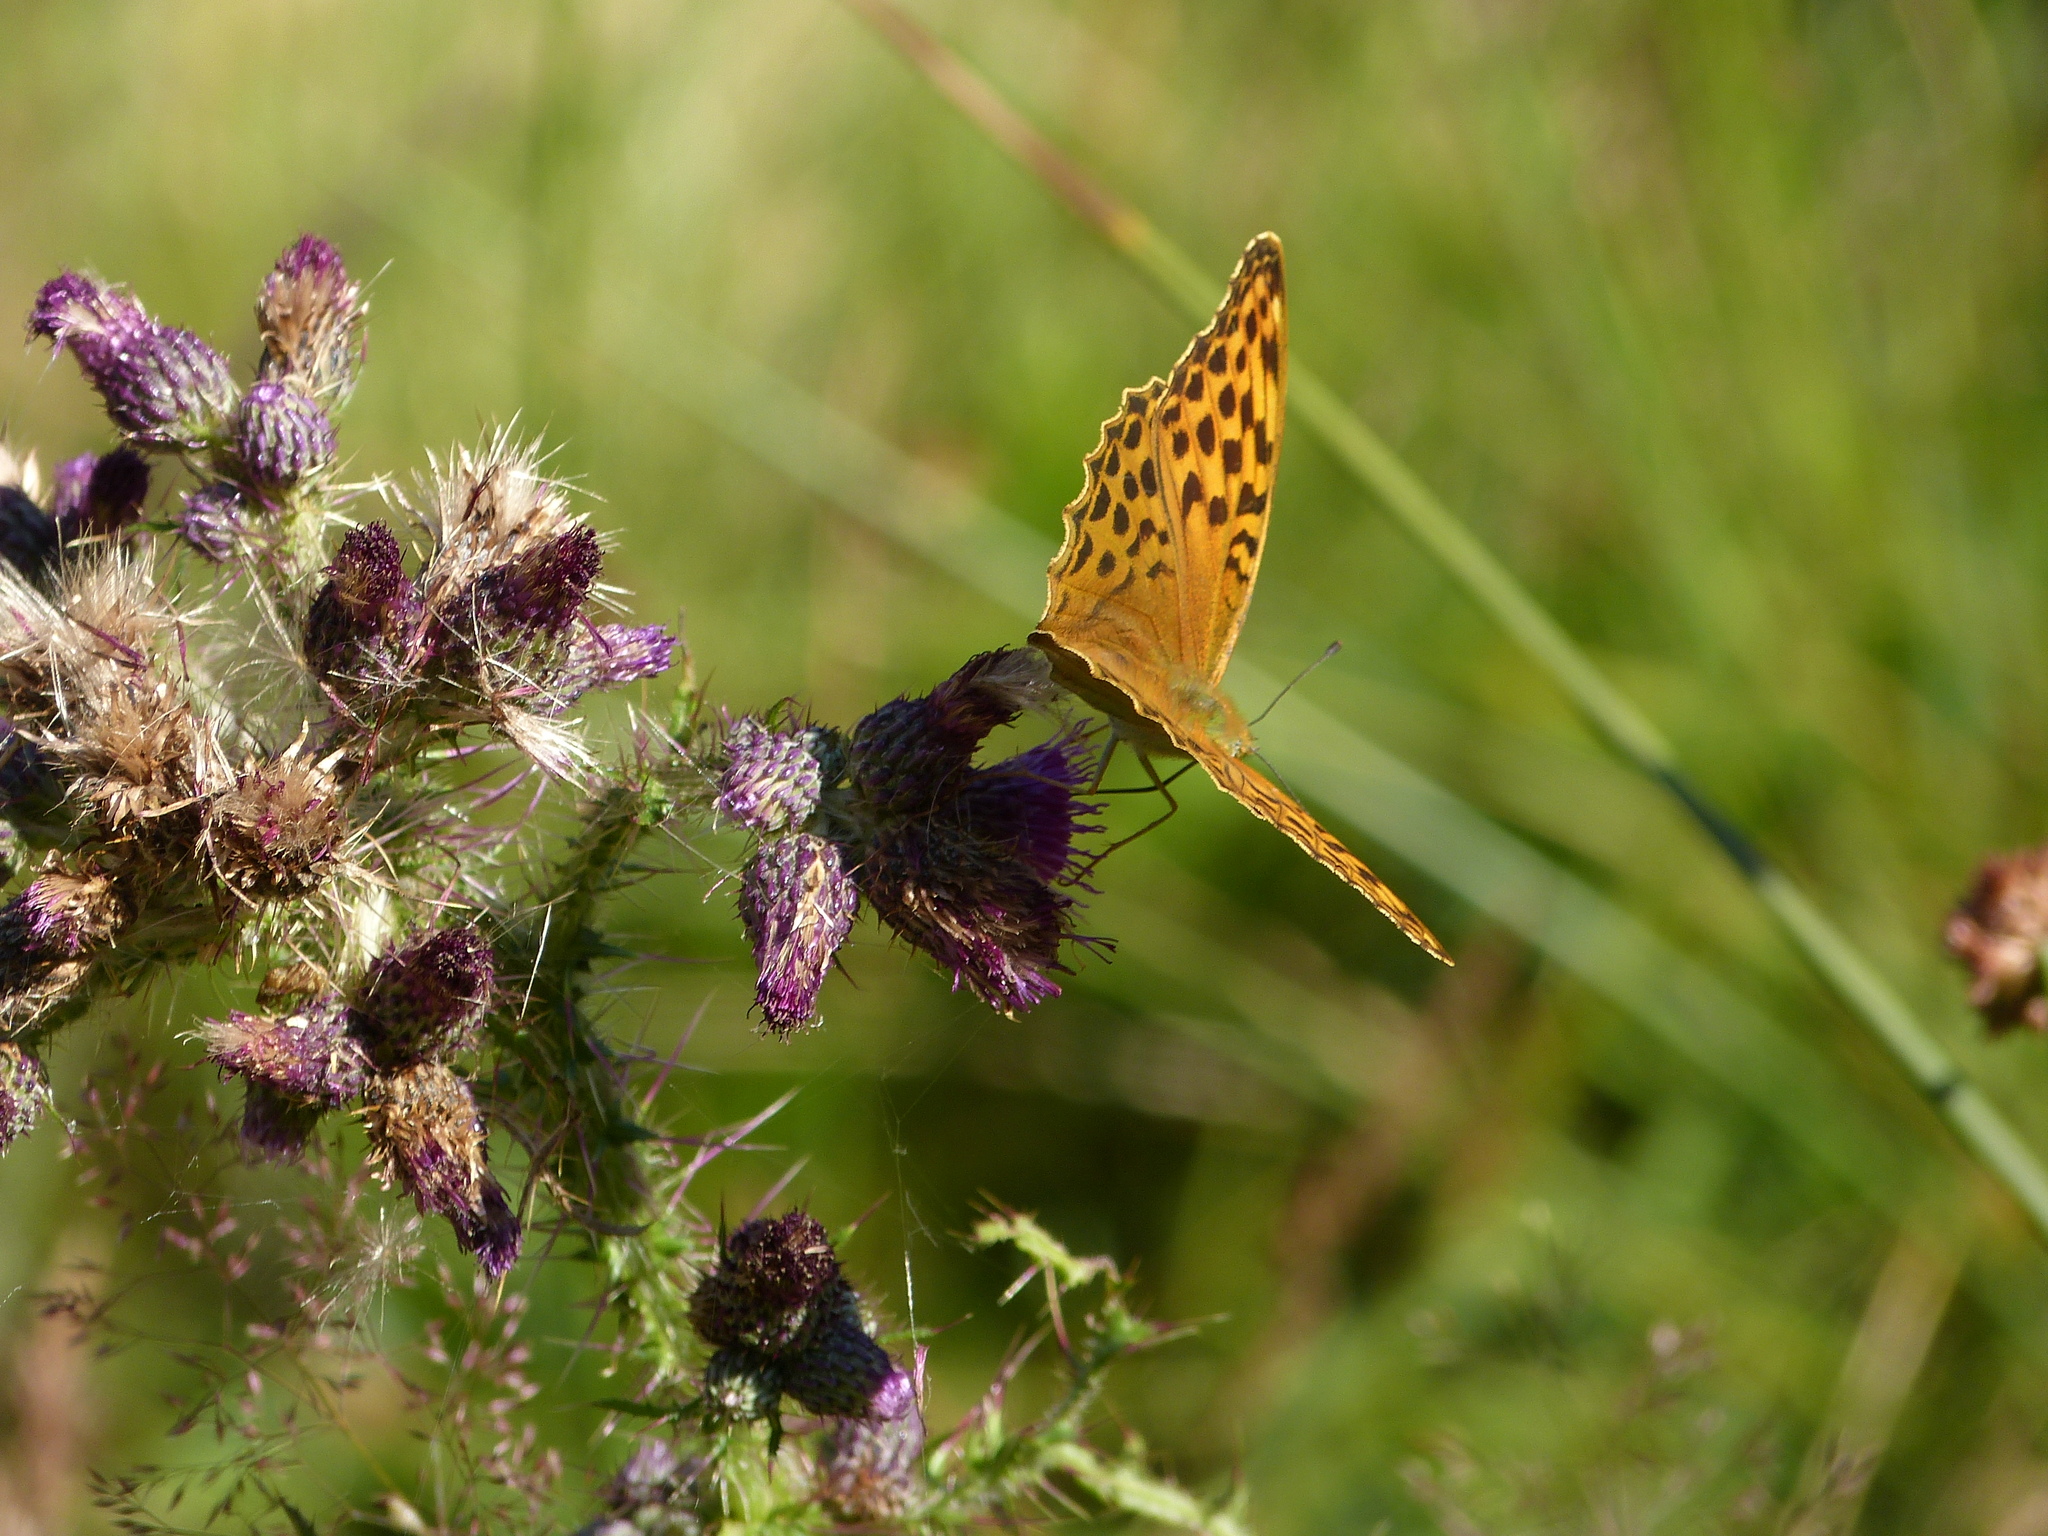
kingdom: Animalia
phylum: Arthropoda
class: Insecta
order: Lepidoptera
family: Nymphalidae
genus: Argynnis
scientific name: Argynnis paphia
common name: Silver-washed fritillary
